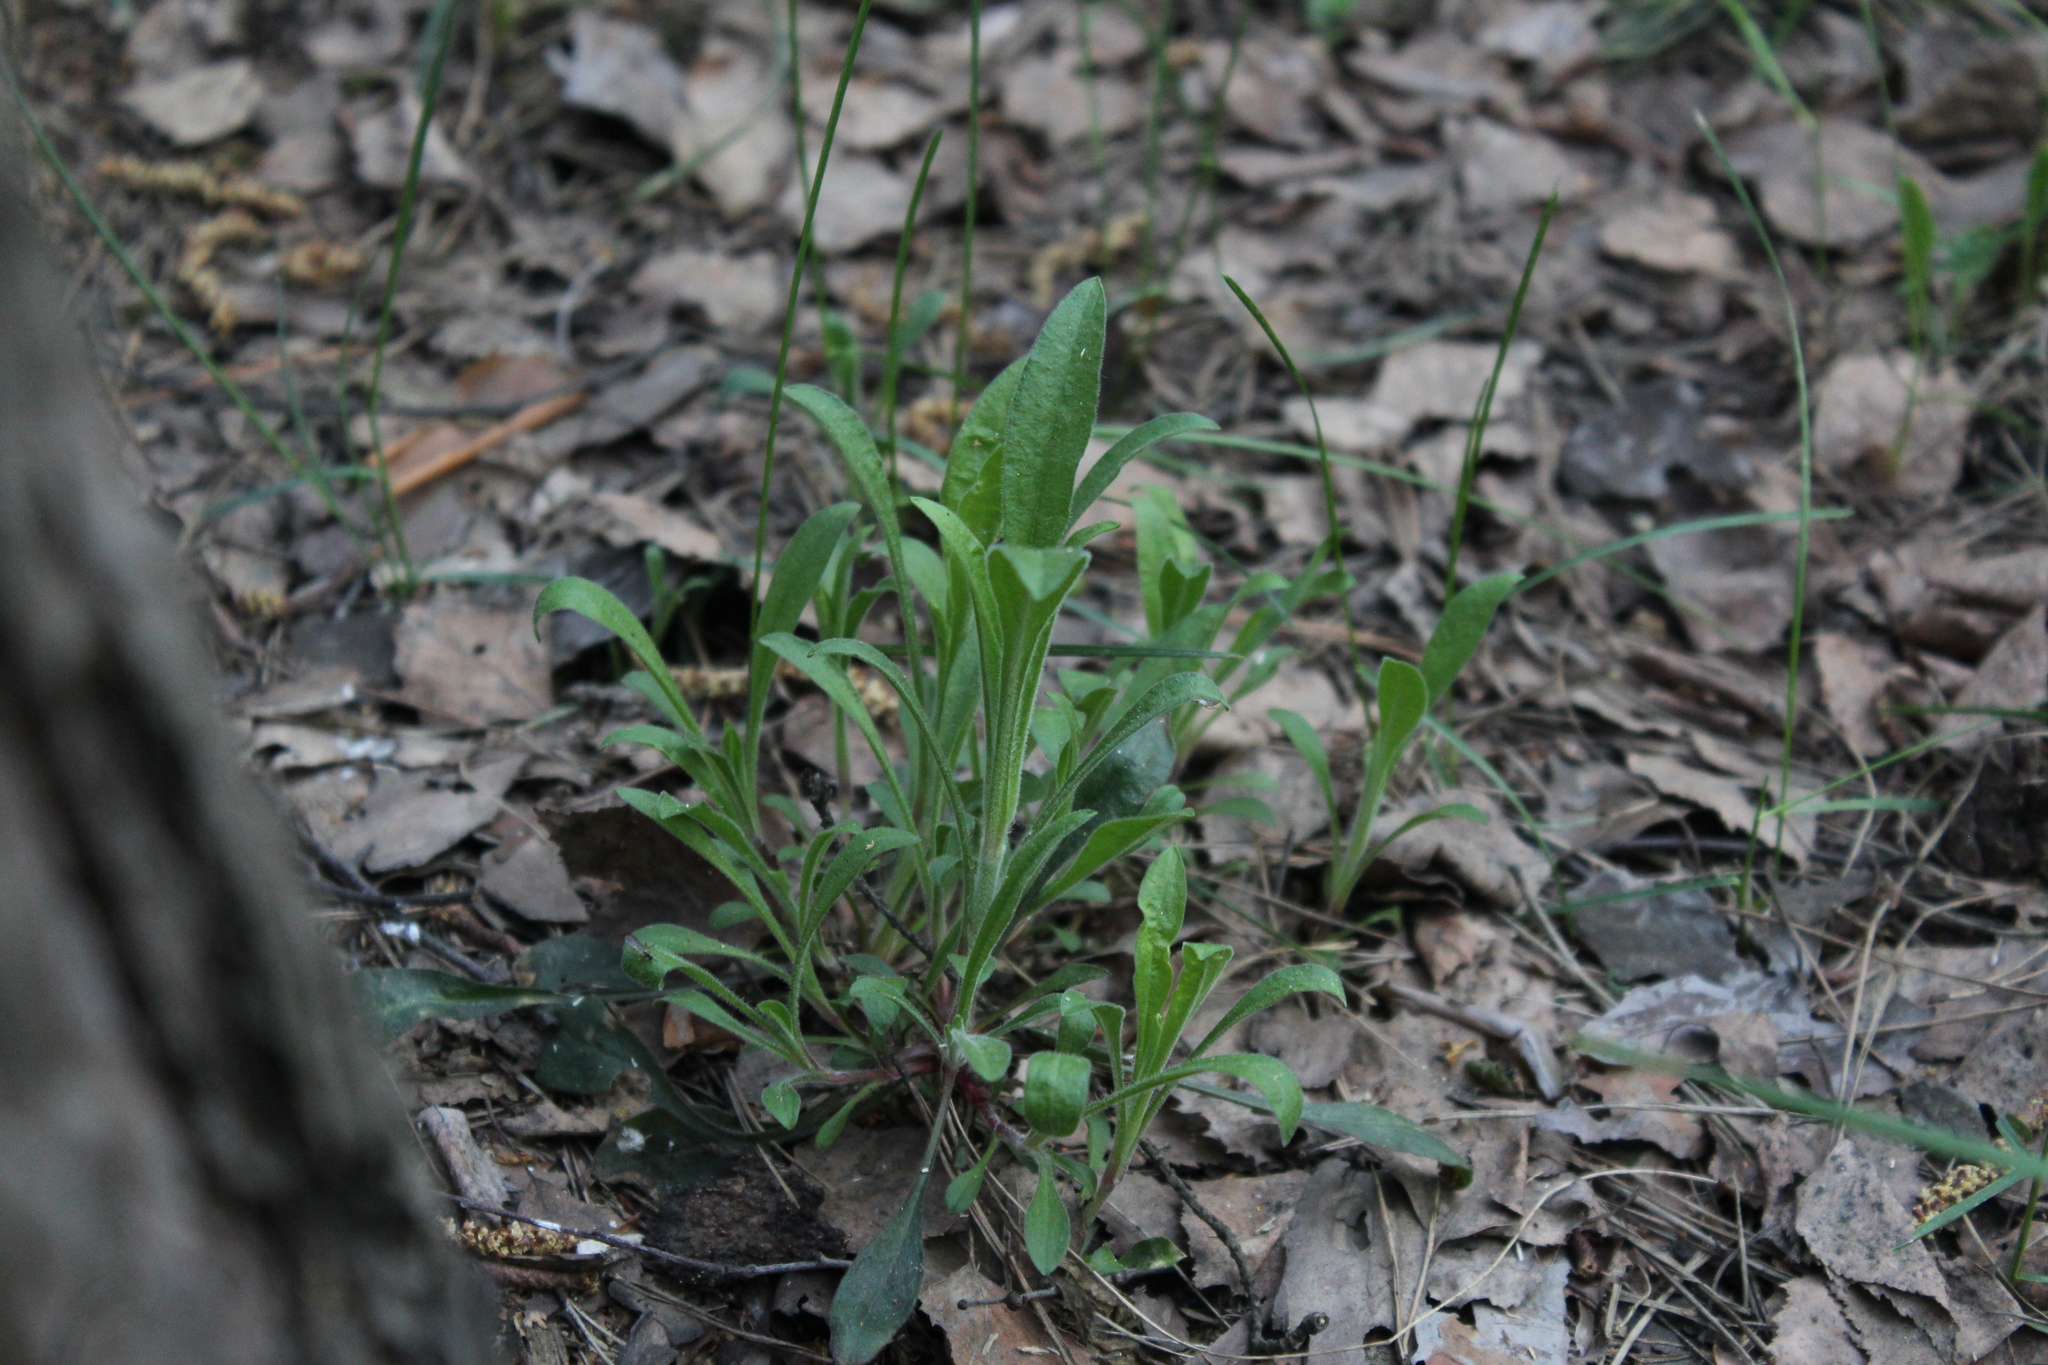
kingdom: Plantae
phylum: Tracheophyta
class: Magnoliopsida
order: Caryophyllales
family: Caryophyllaceae
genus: Silene
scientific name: Silene nutans
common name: Nottingham catchfly
